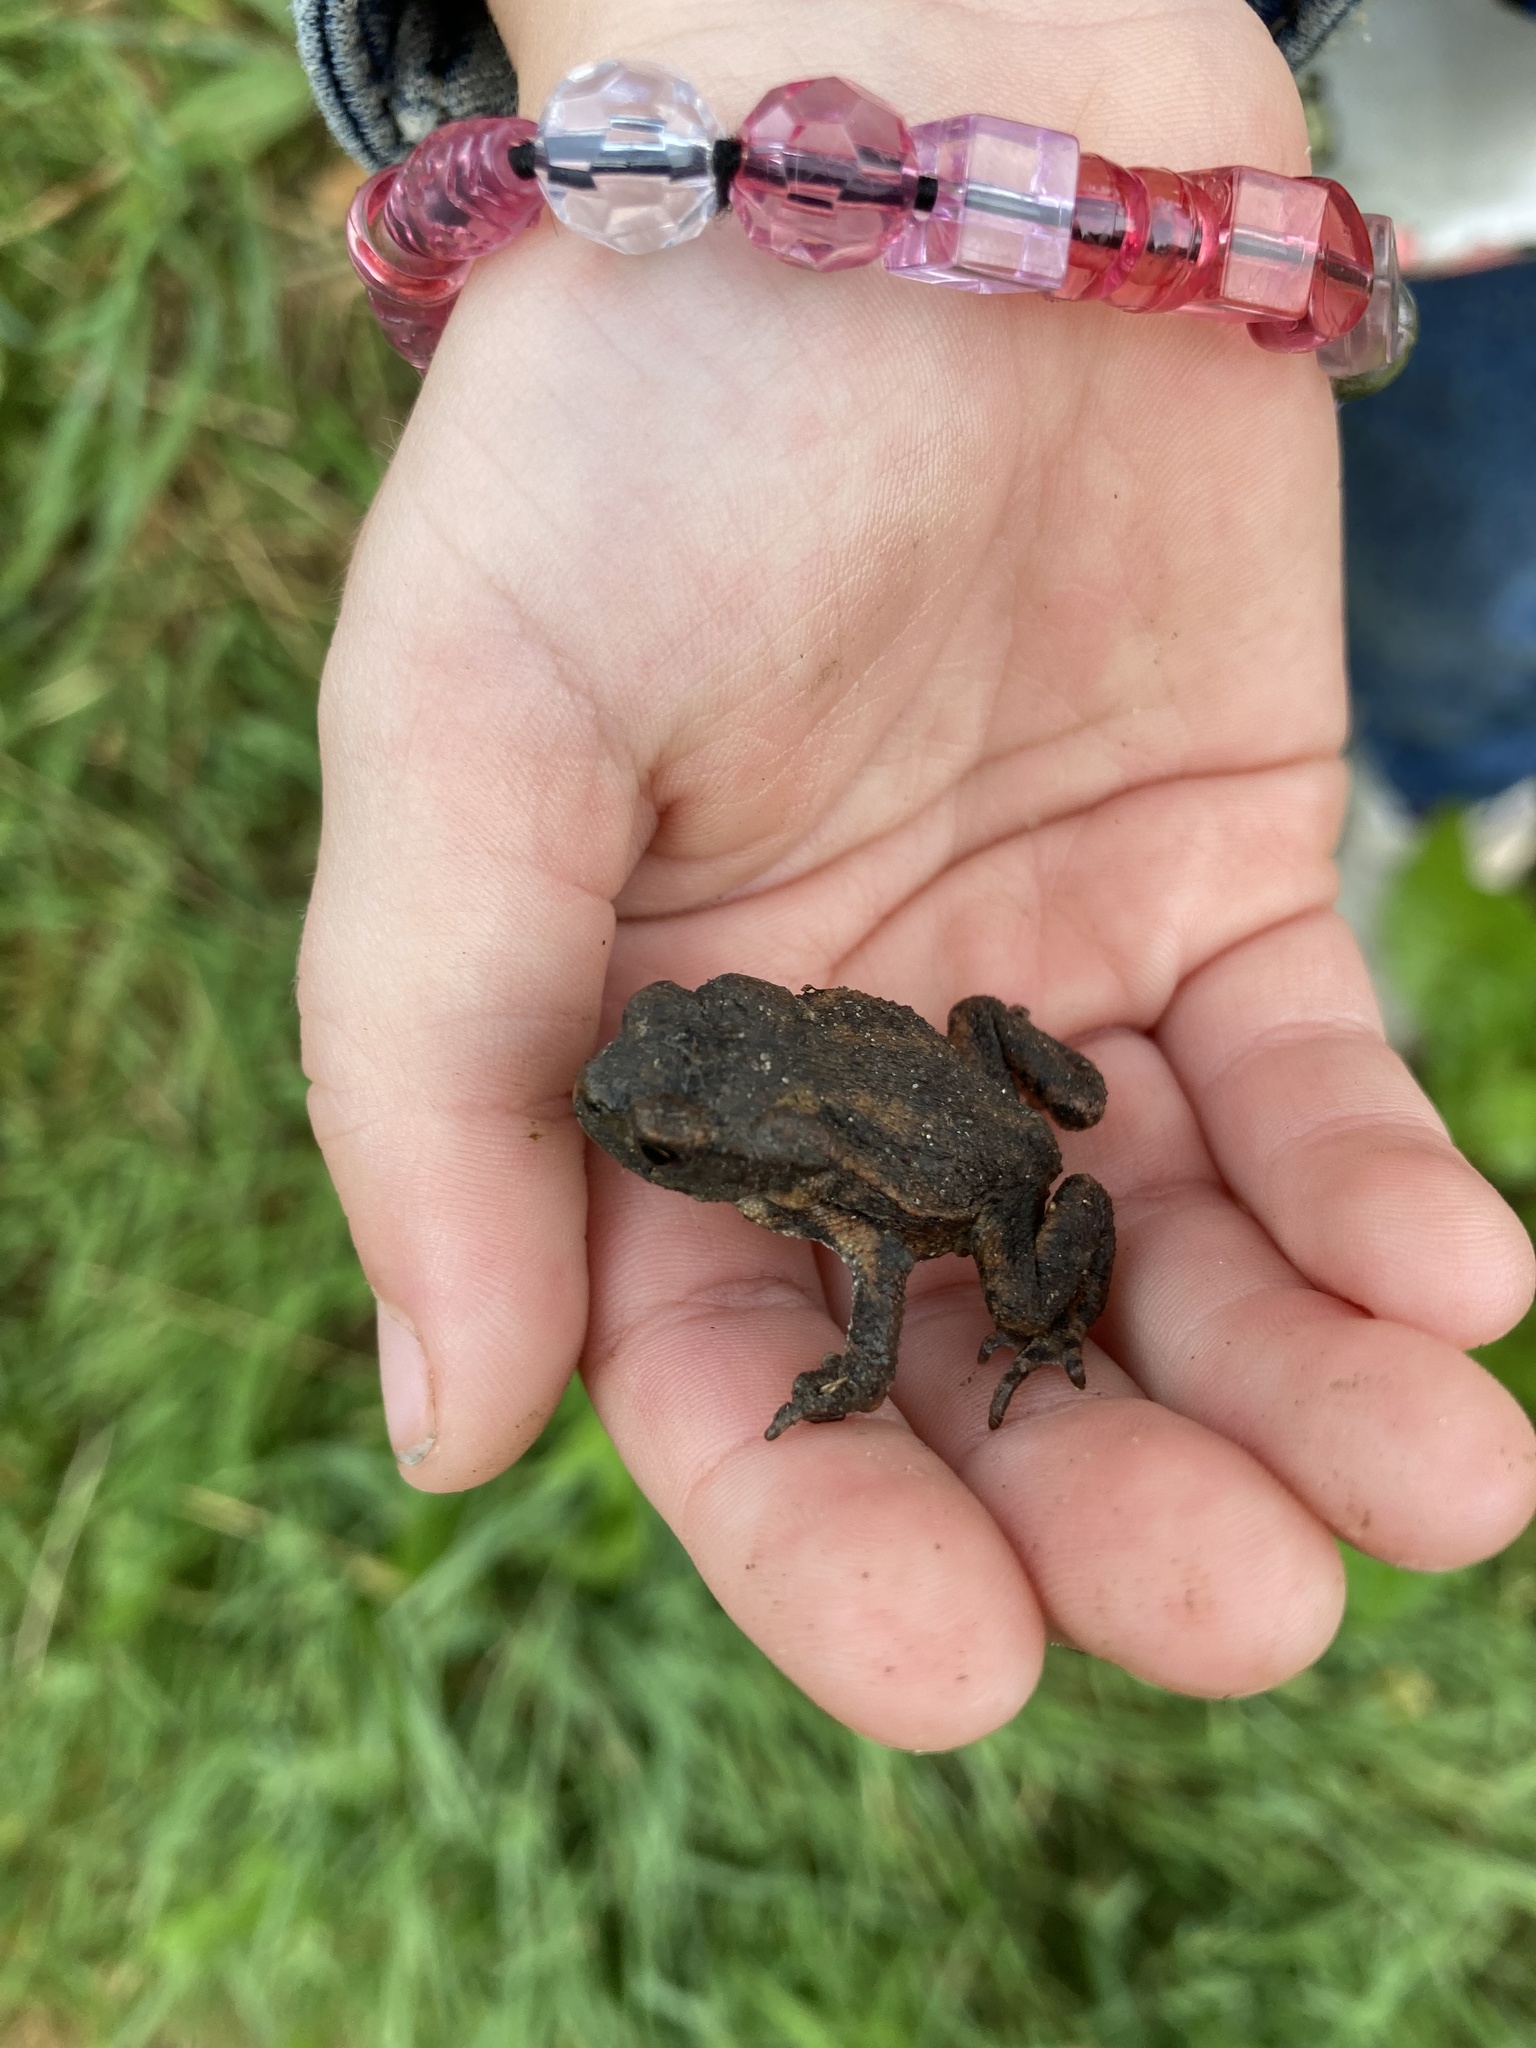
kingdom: Animalia
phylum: Chordata
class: Amphibia
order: Anura
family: Bufonidae
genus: Bufo
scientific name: Bufo bufo
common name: Common toad
